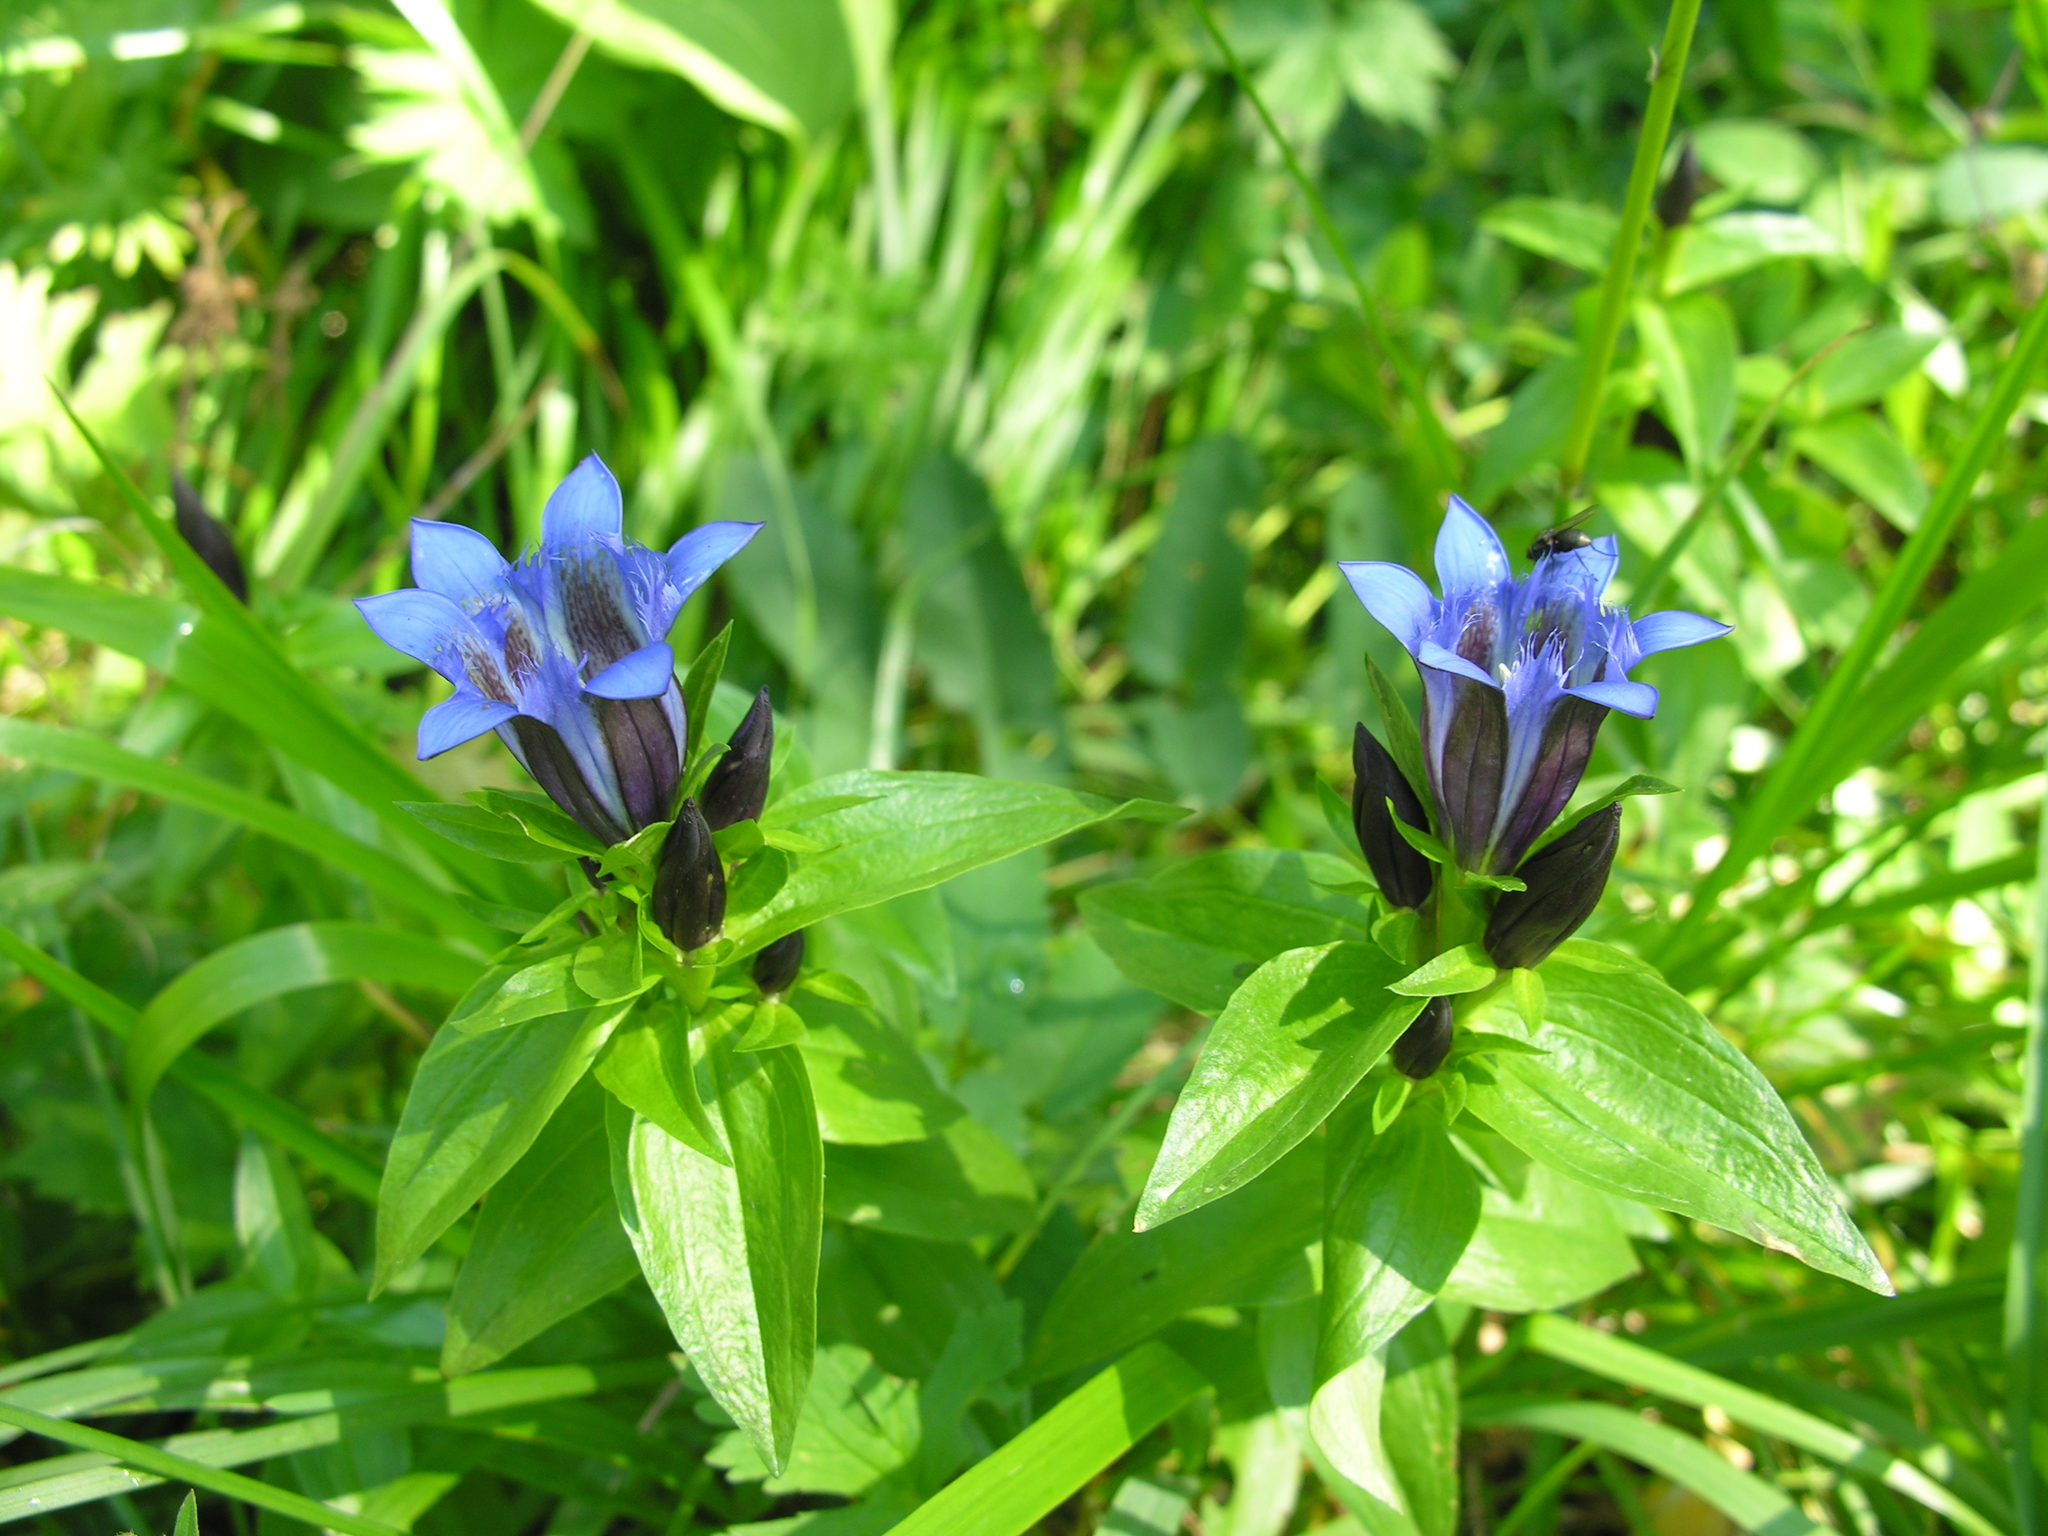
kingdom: Plantae
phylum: Tracheophyta
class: Magnoliopsida
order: Gentianales
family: Gentianaceae
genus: Gentiana
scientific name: Gentiana dschungarica
